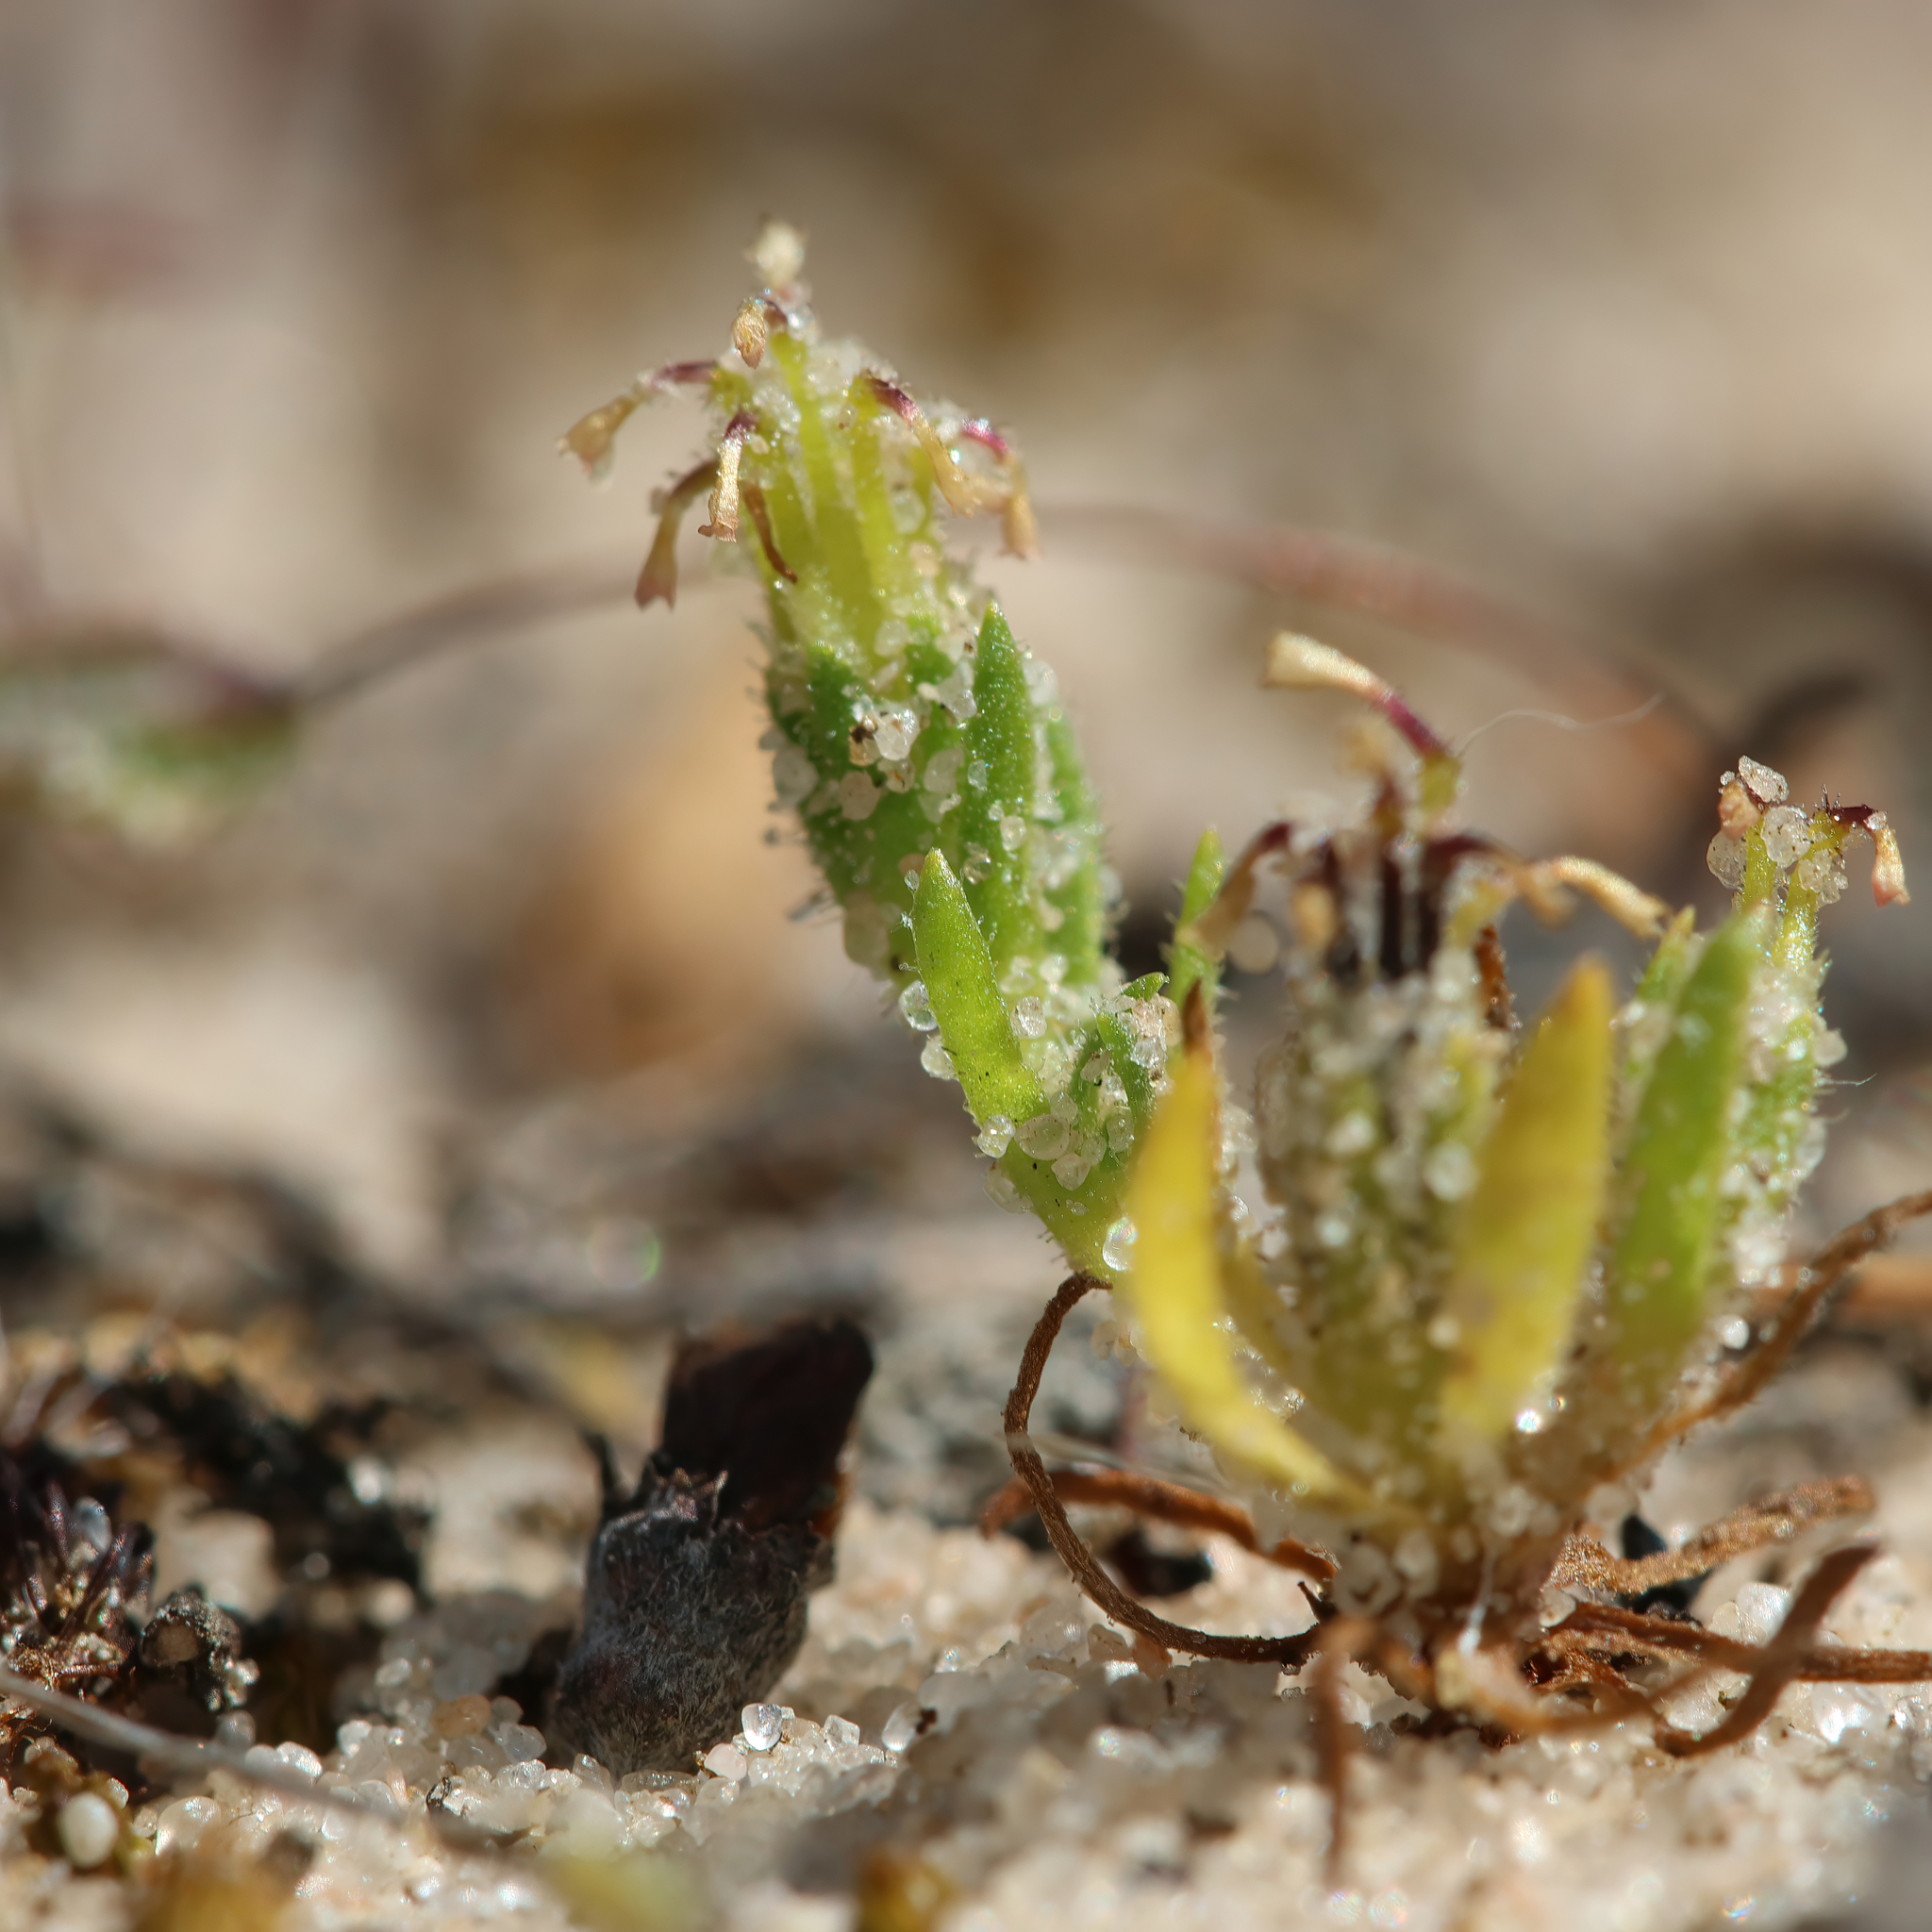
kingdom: Plantae
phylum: Tracheophyta
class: Magnoliopsida
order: Asterales
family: Asteraceae
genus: Millotia
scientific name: Millotia muelleri
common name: Common bow-flower
